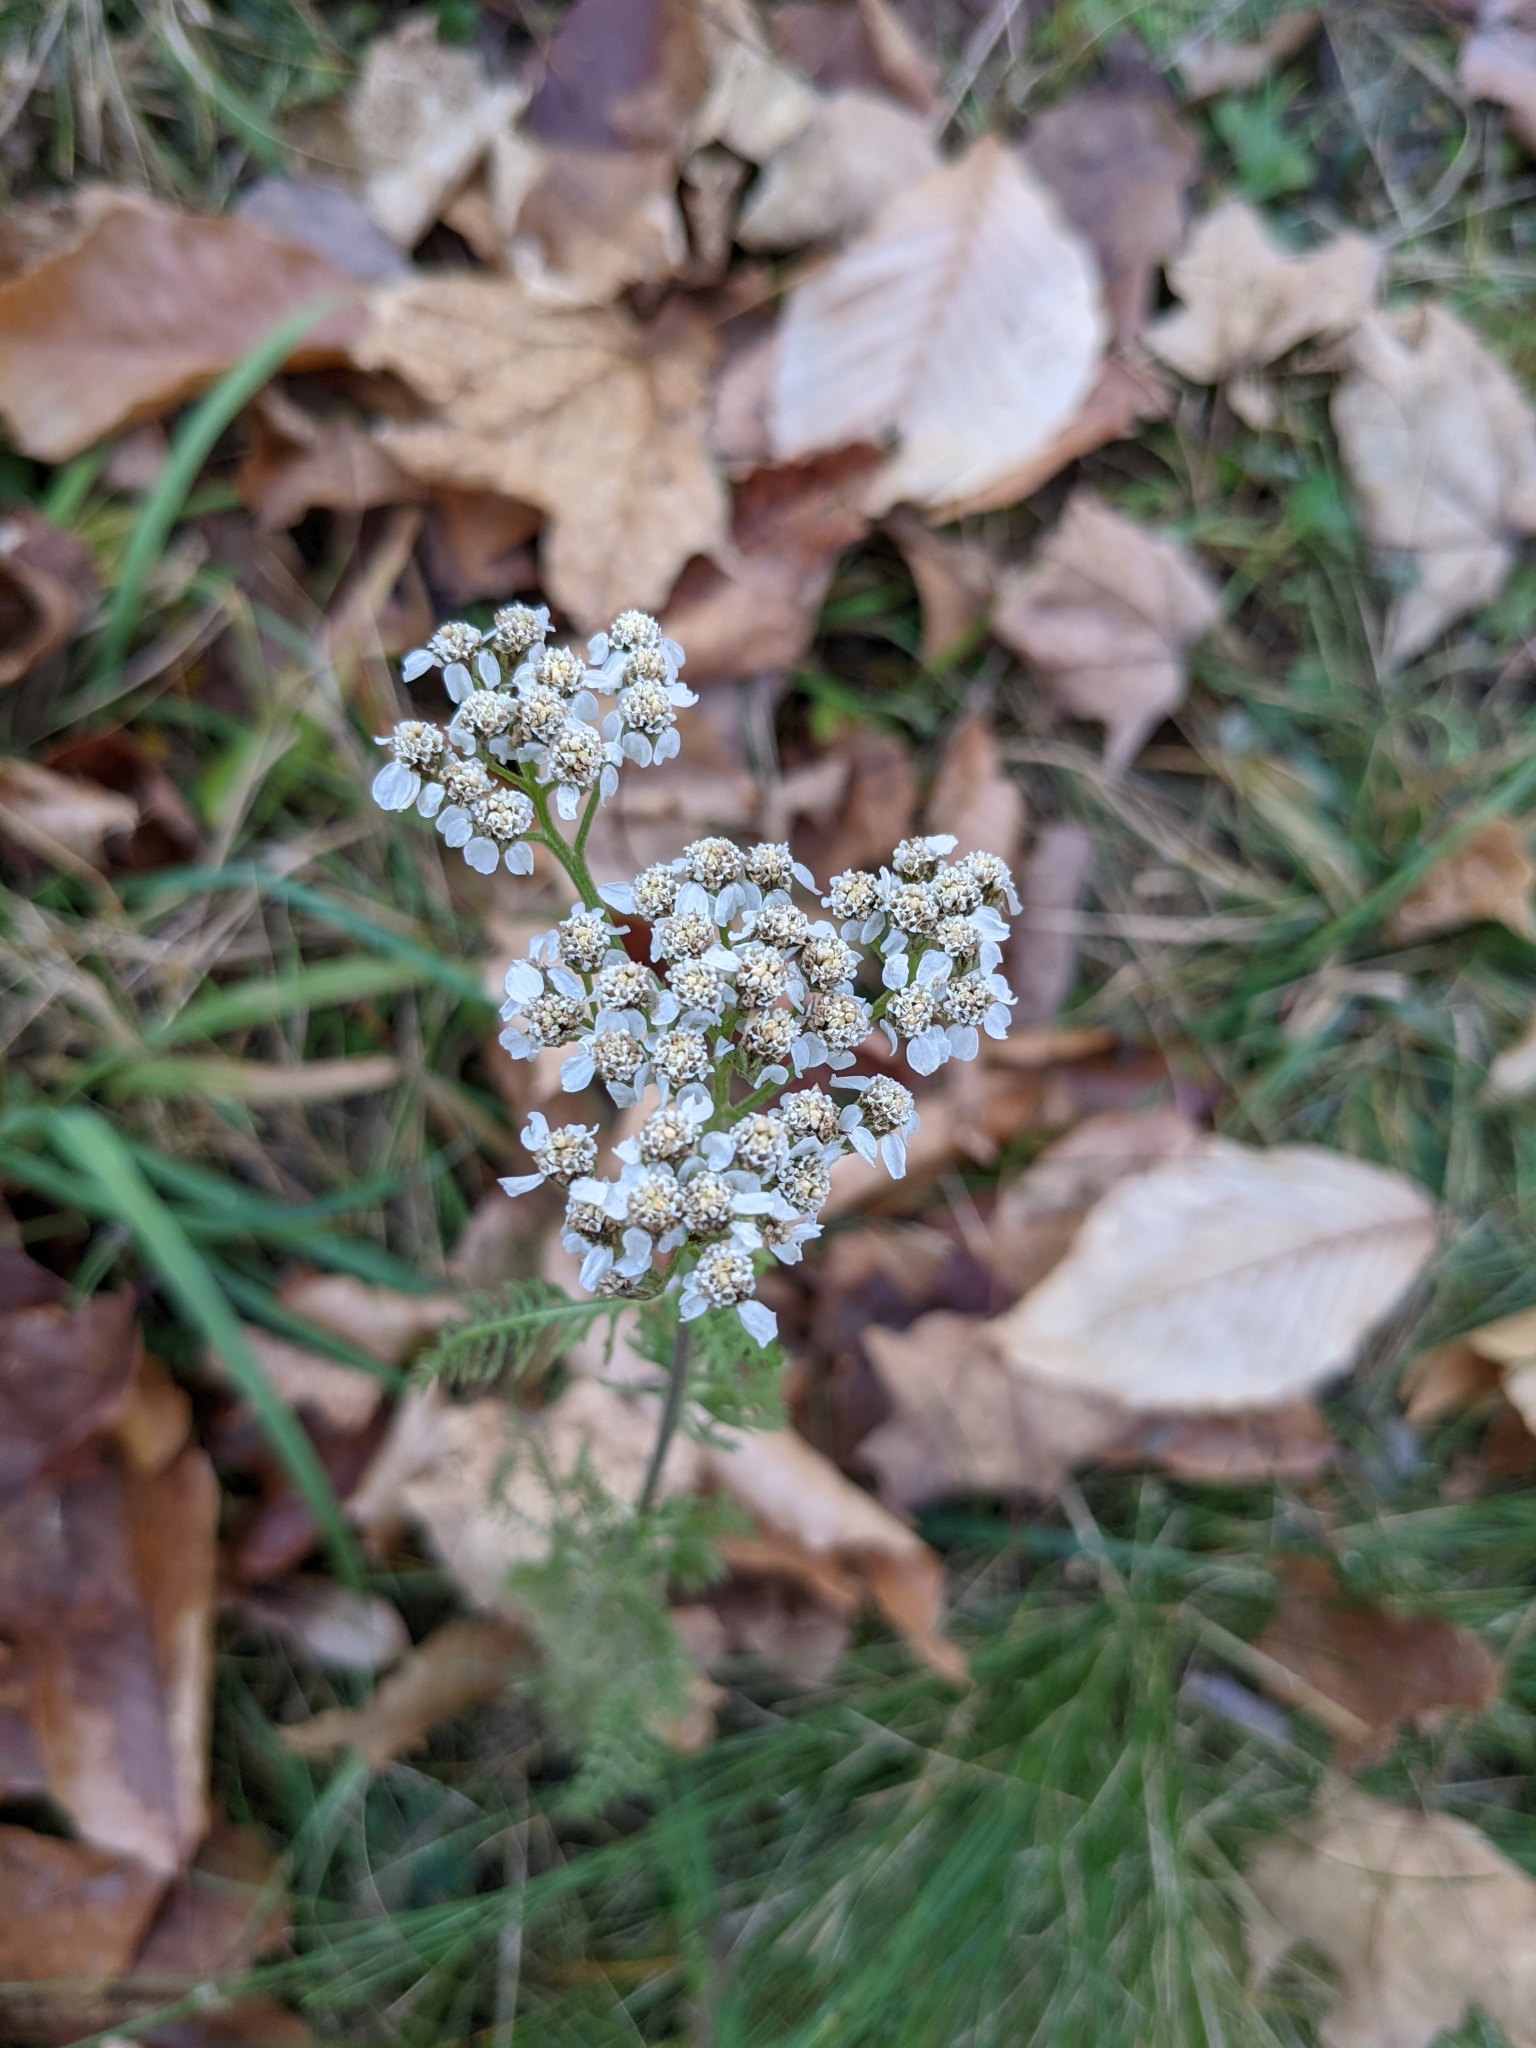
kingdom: Plantae
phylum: Tracheophyta
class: Magnoliopsida
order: Asterales
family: Asteraceae
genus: Achillea
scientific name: Achillea millefolium
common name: Yarrow
